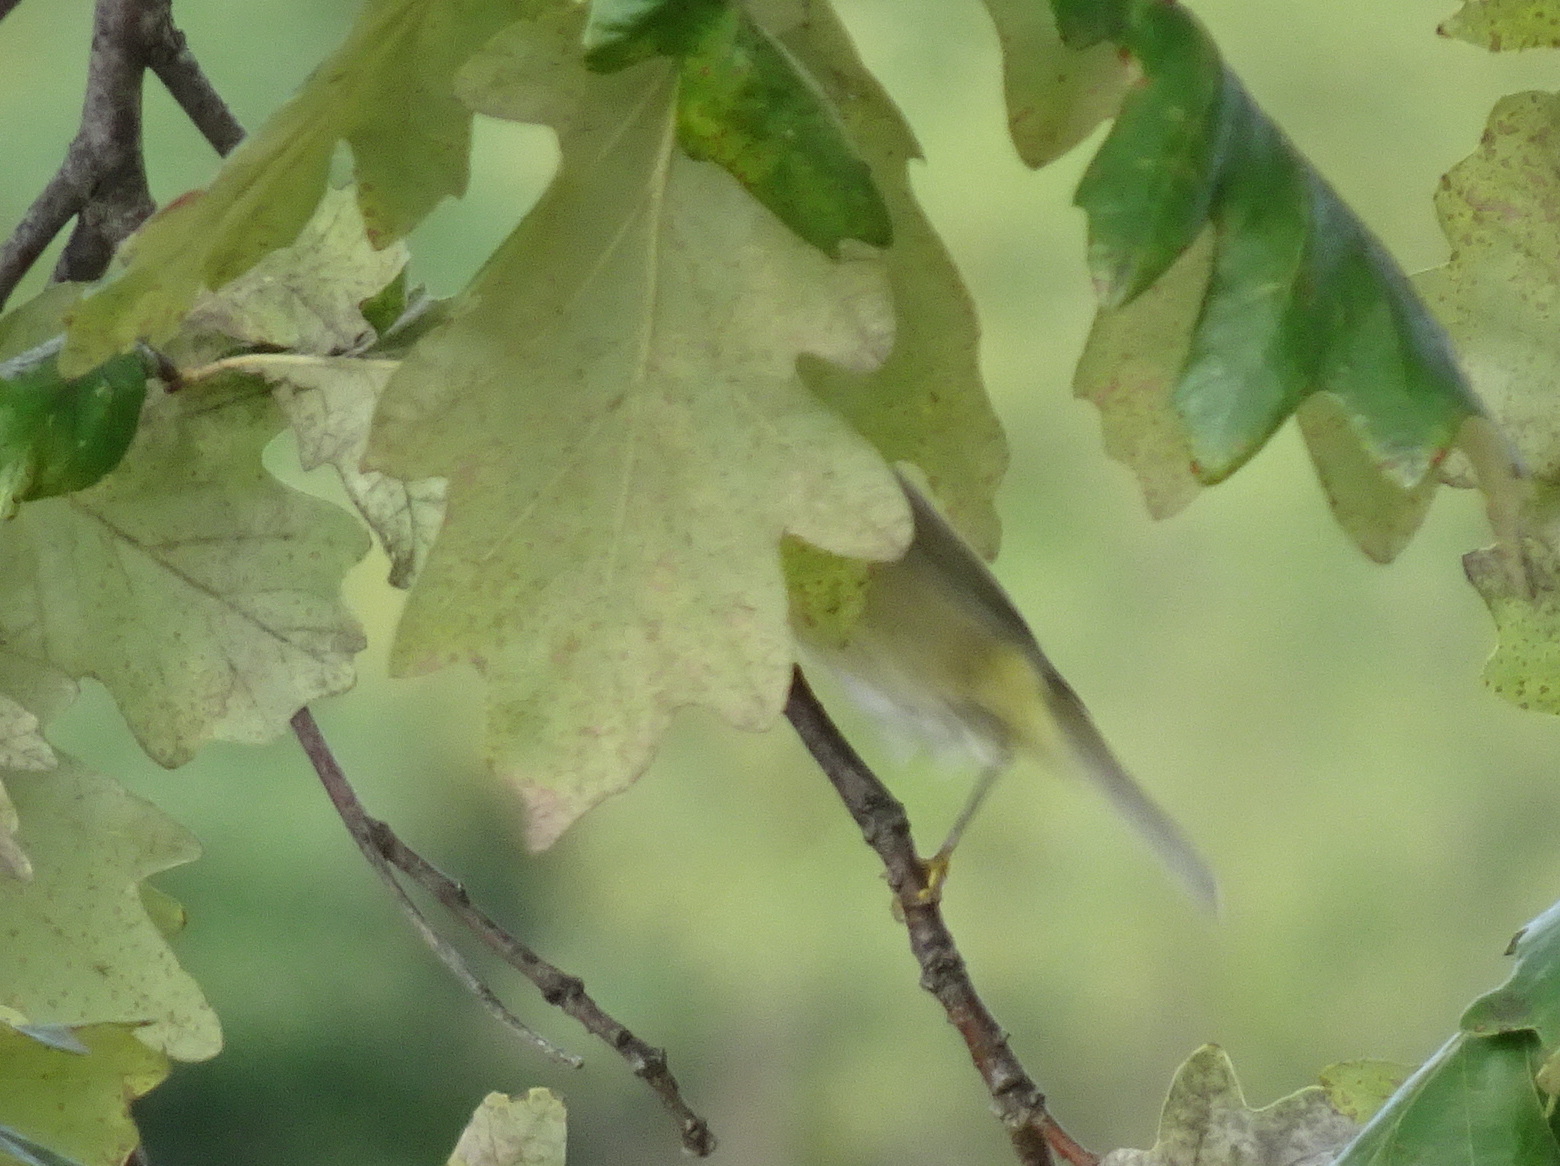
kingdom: Animalia
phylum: Chordata
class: Aves
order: Passeriformes
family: Parulidae
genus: Leiothlypis
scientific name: Leiothlypis celata
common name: Orange-crowned warbler
